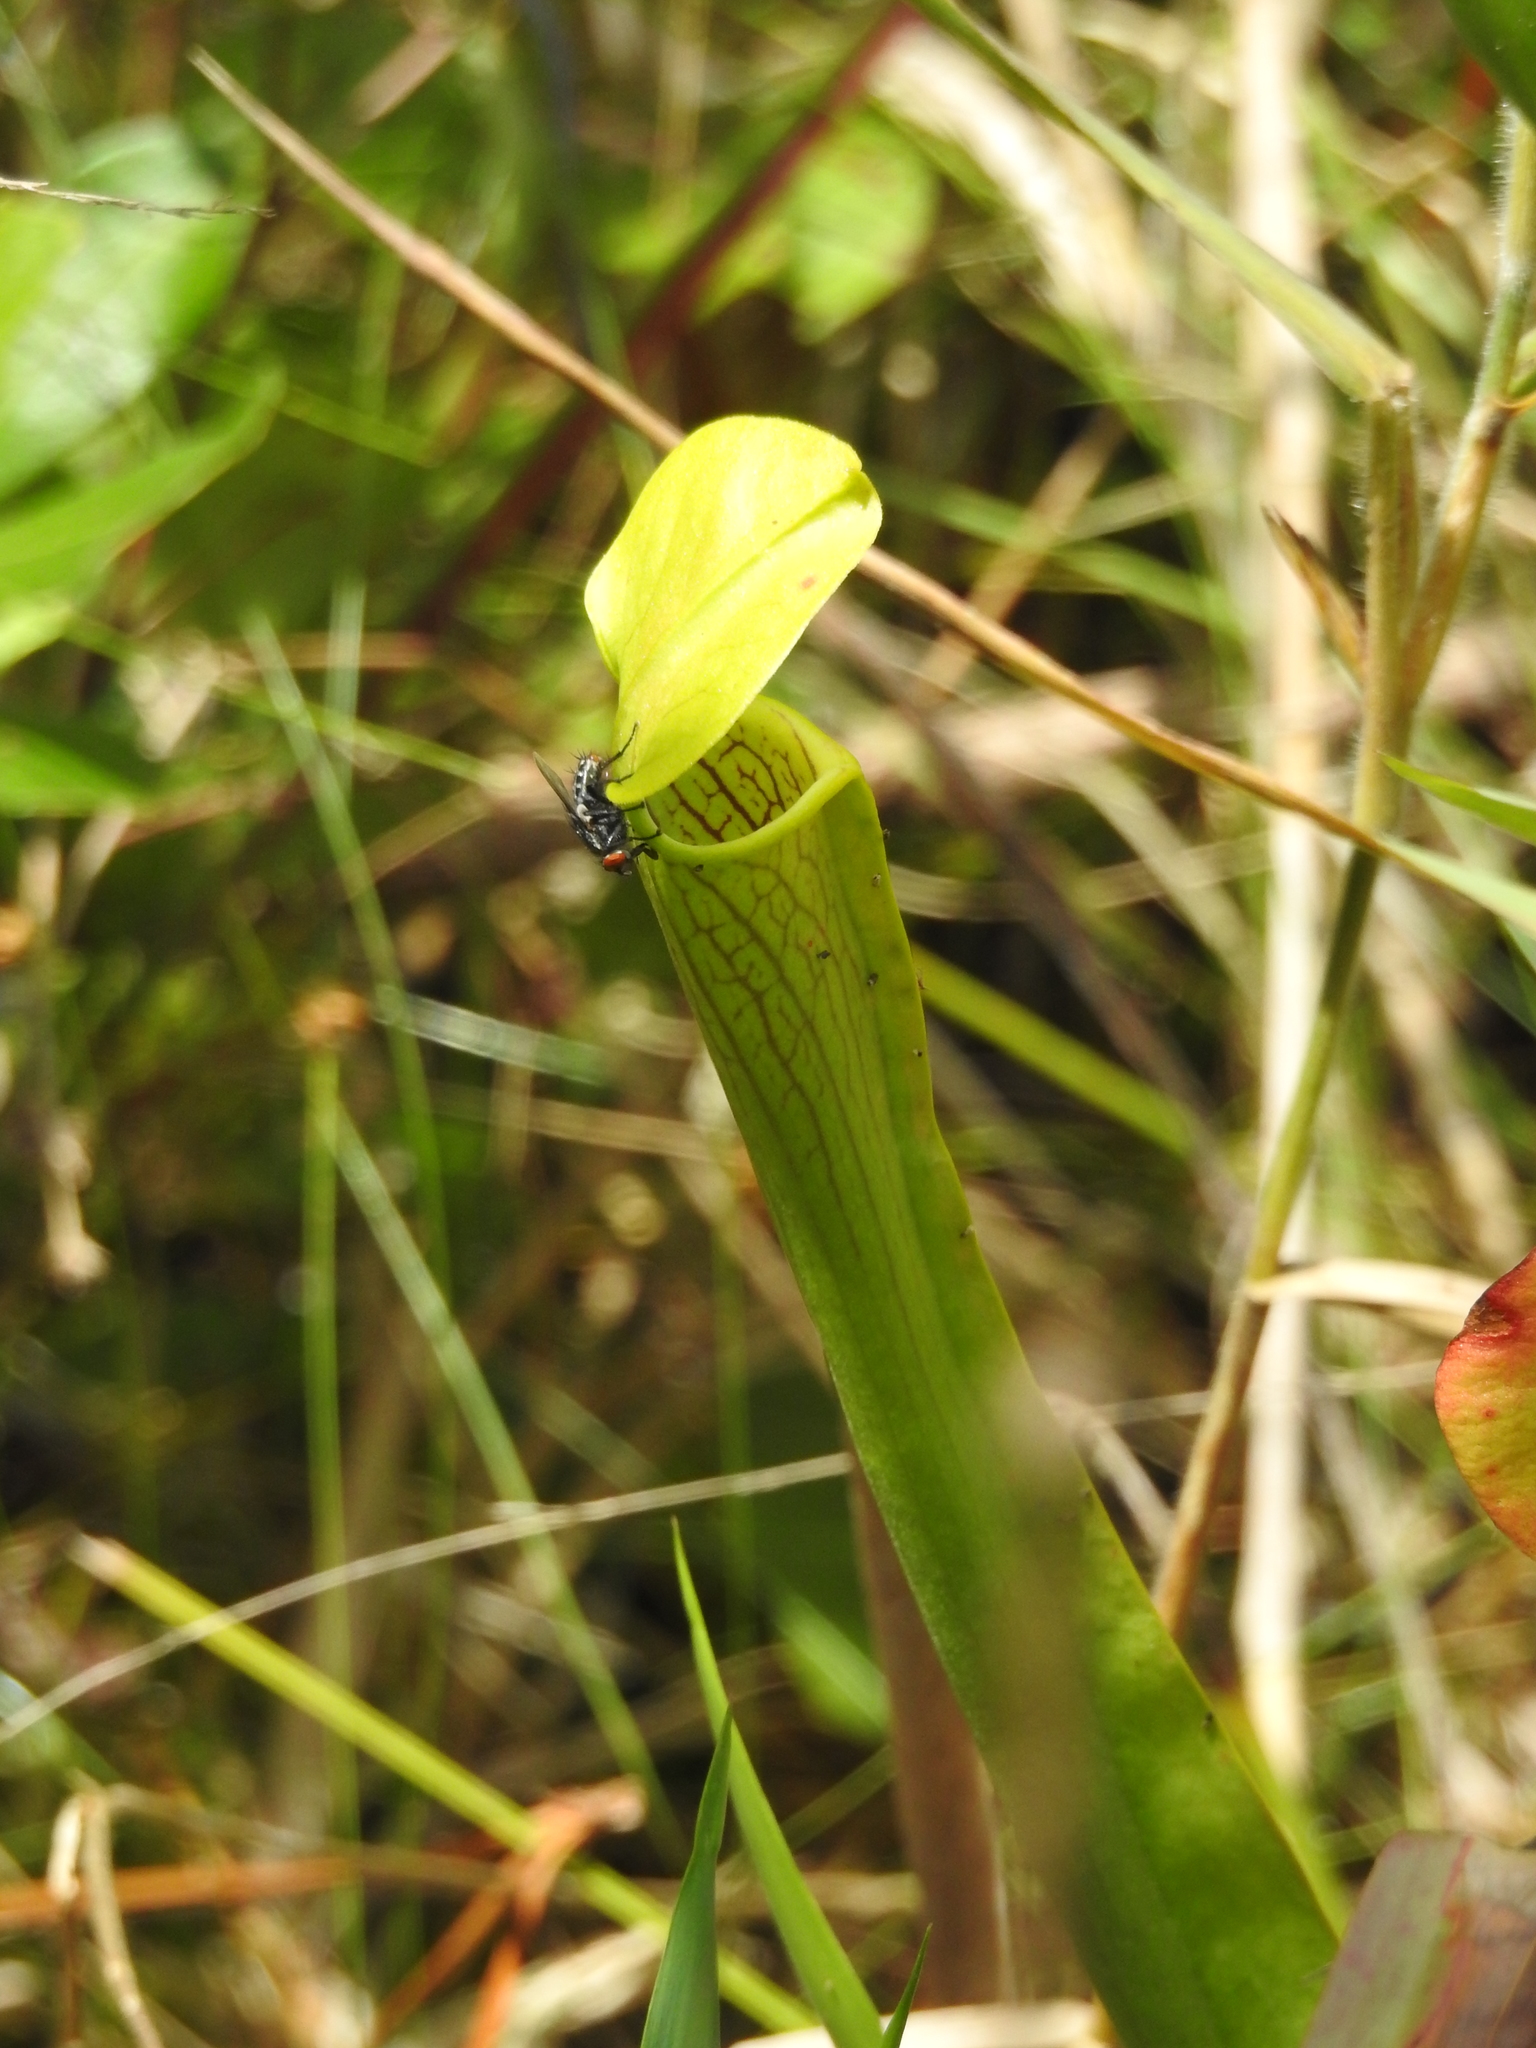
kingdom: Plantae
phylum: Tracheophyta
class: Magnoliopsida
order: Ericales
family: Sarraceniaceae
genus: Sarracenia
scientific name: Sarracenia alata
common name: Yellow trumpets
